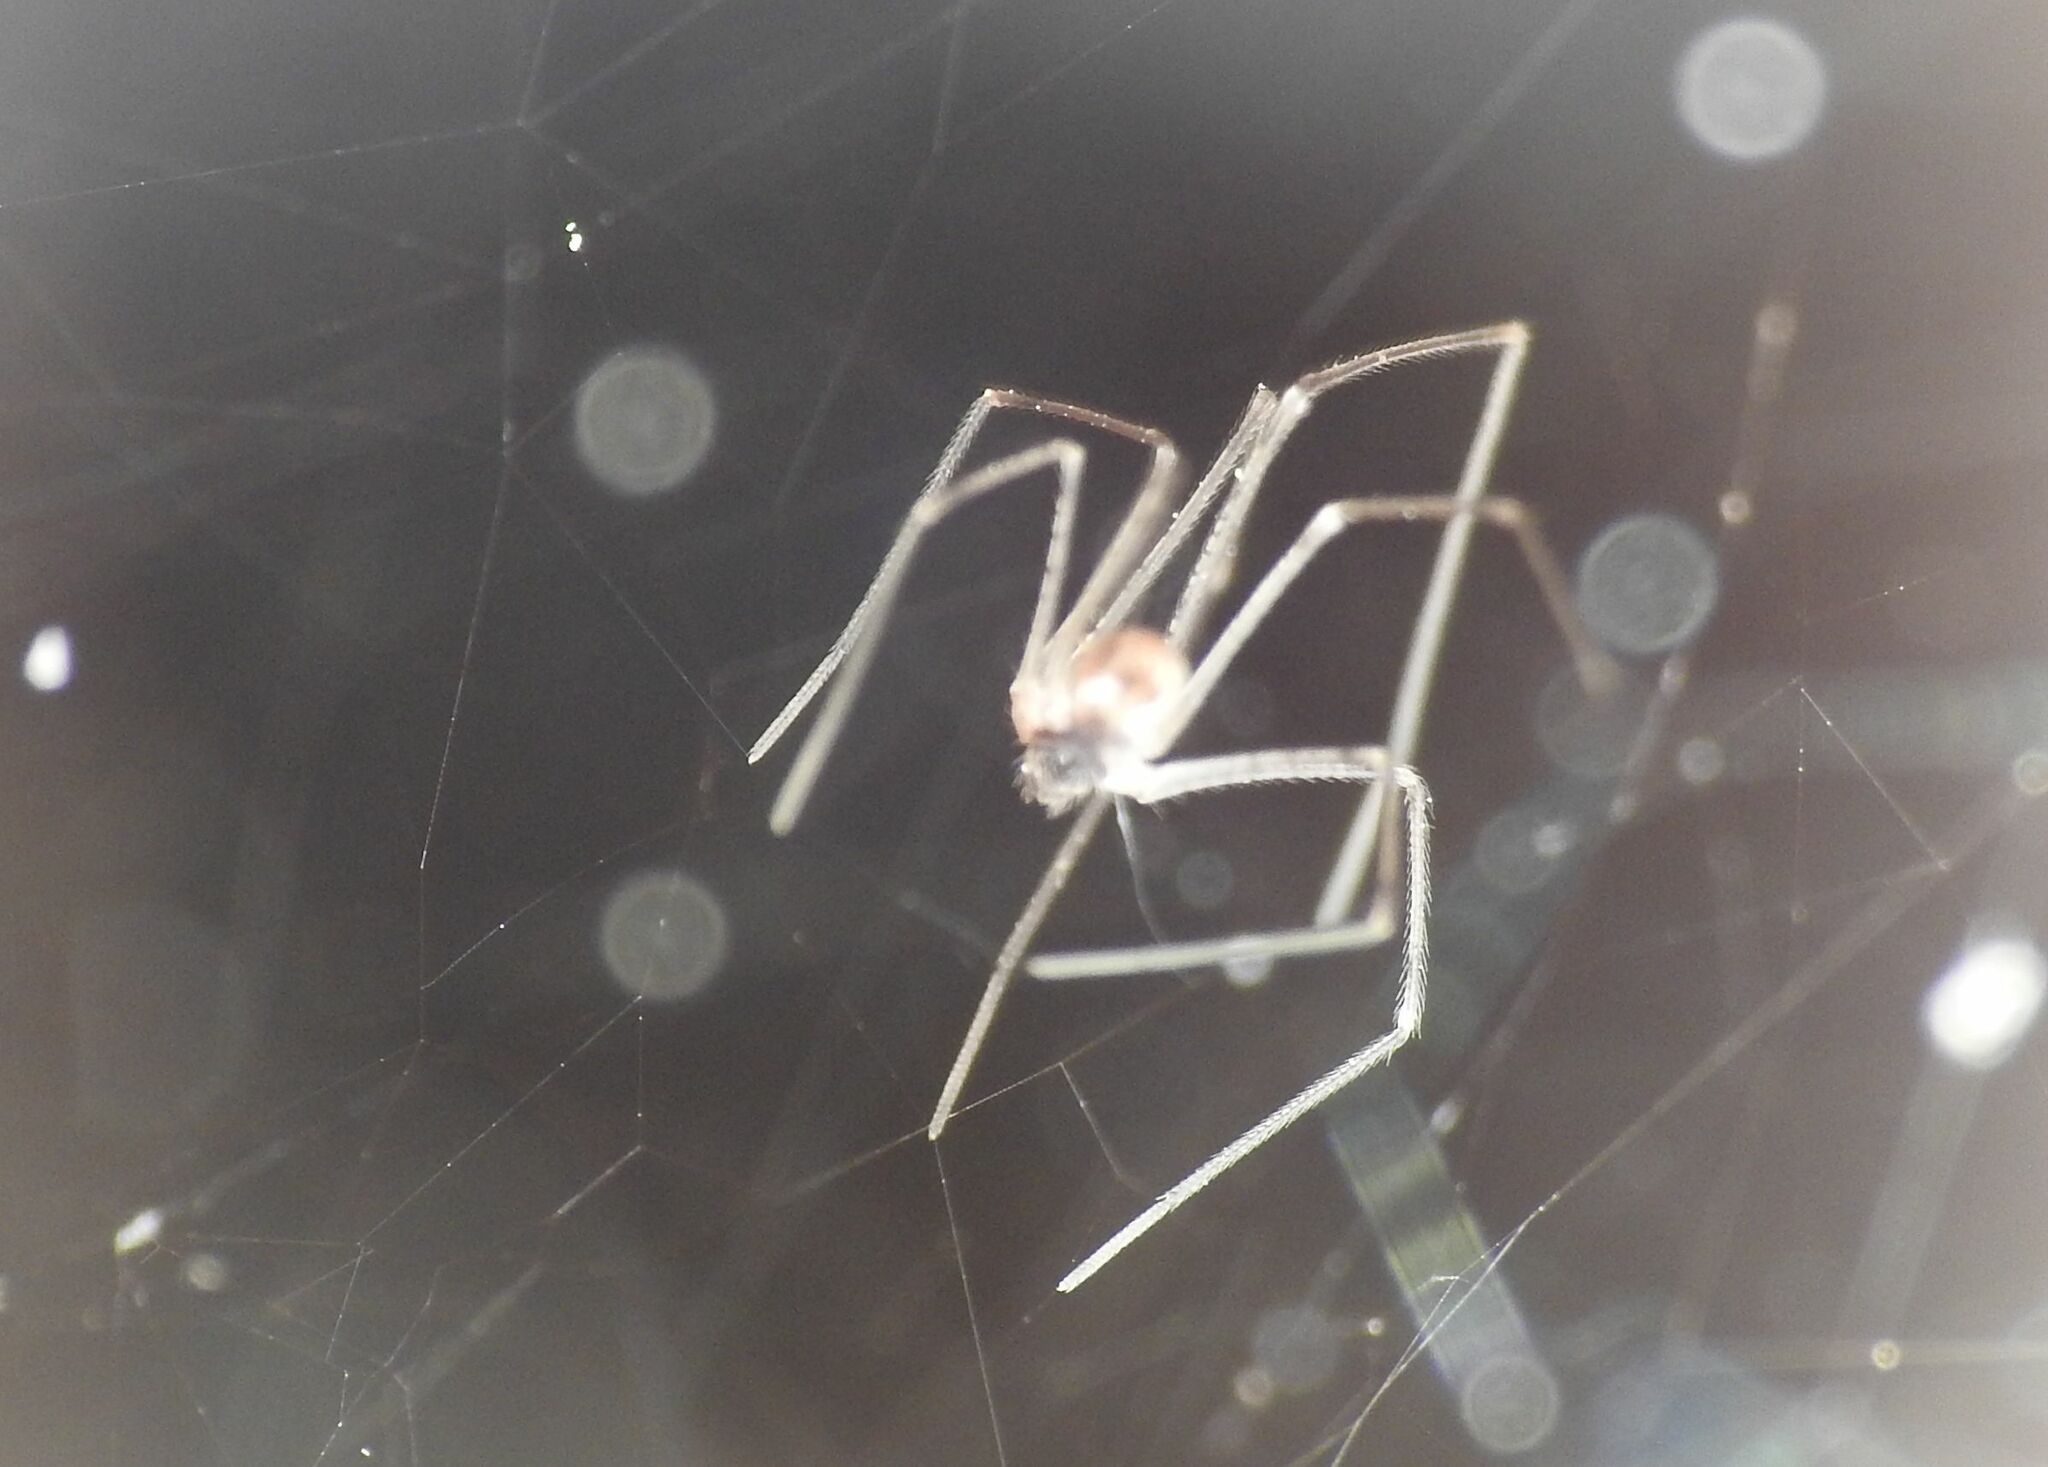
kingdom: Animalia
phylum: Arthropoda
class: Arachnida
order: Araneae
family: Pholcidae
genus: Holocnemus
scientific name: Holocnemus pluchei
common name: Marbled cellar spider
